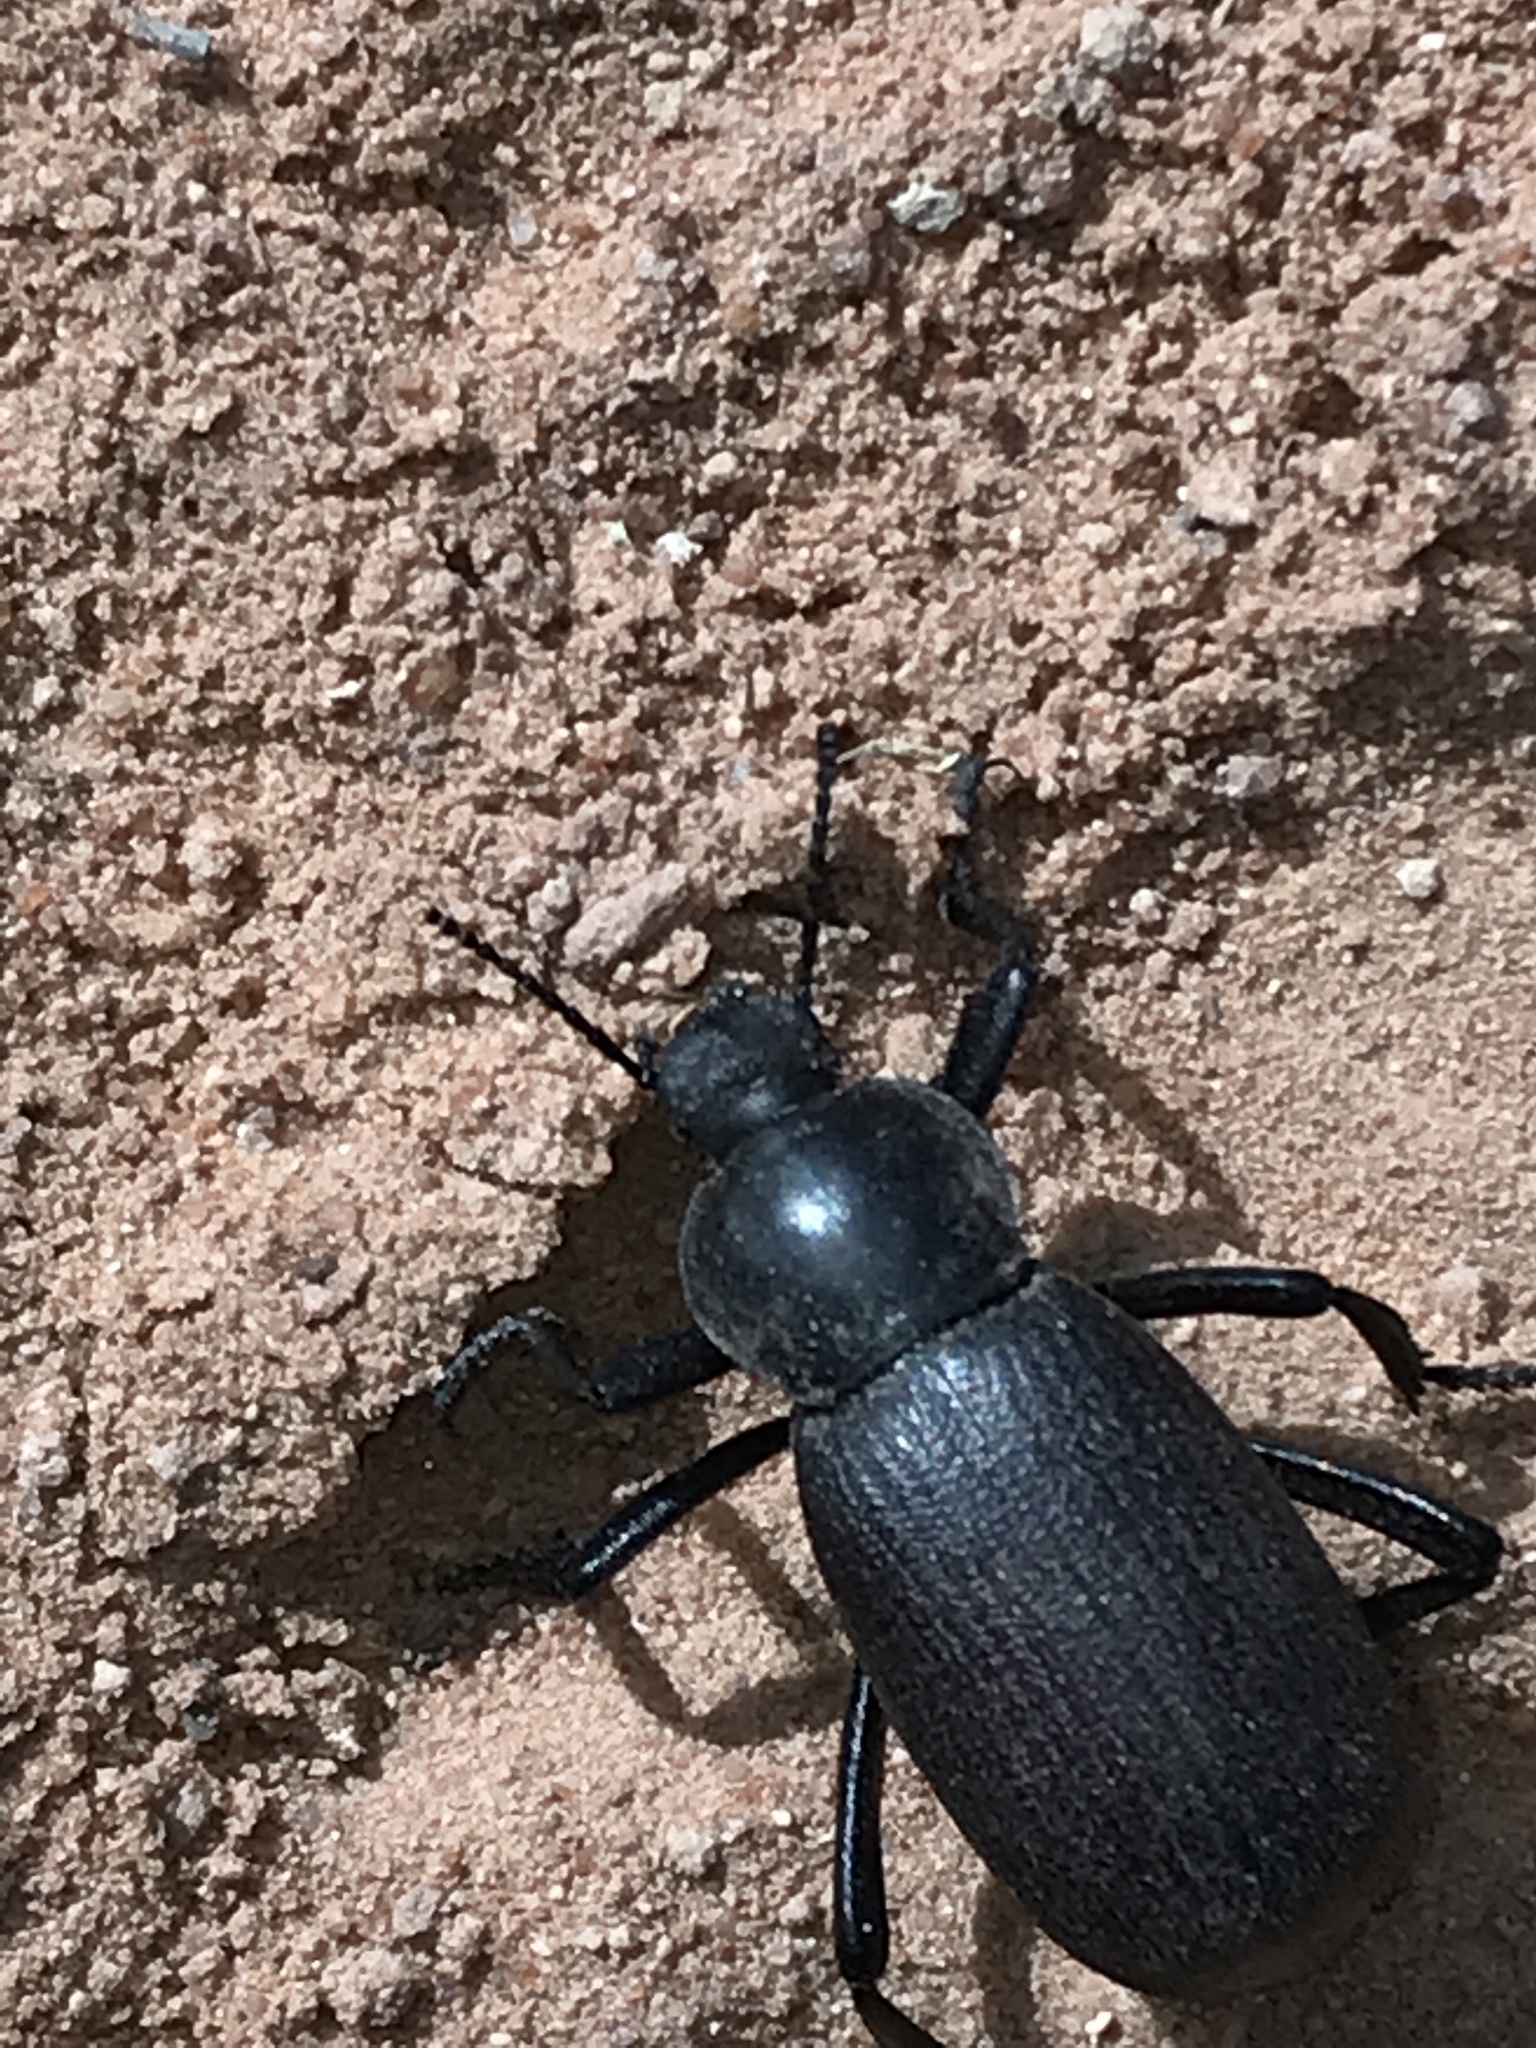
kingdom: Animalia
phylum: Arthropoda
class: Insecta
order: Coleoptera
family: Tenebrionidae
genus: Eleodes
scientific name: Eleodes obscura
